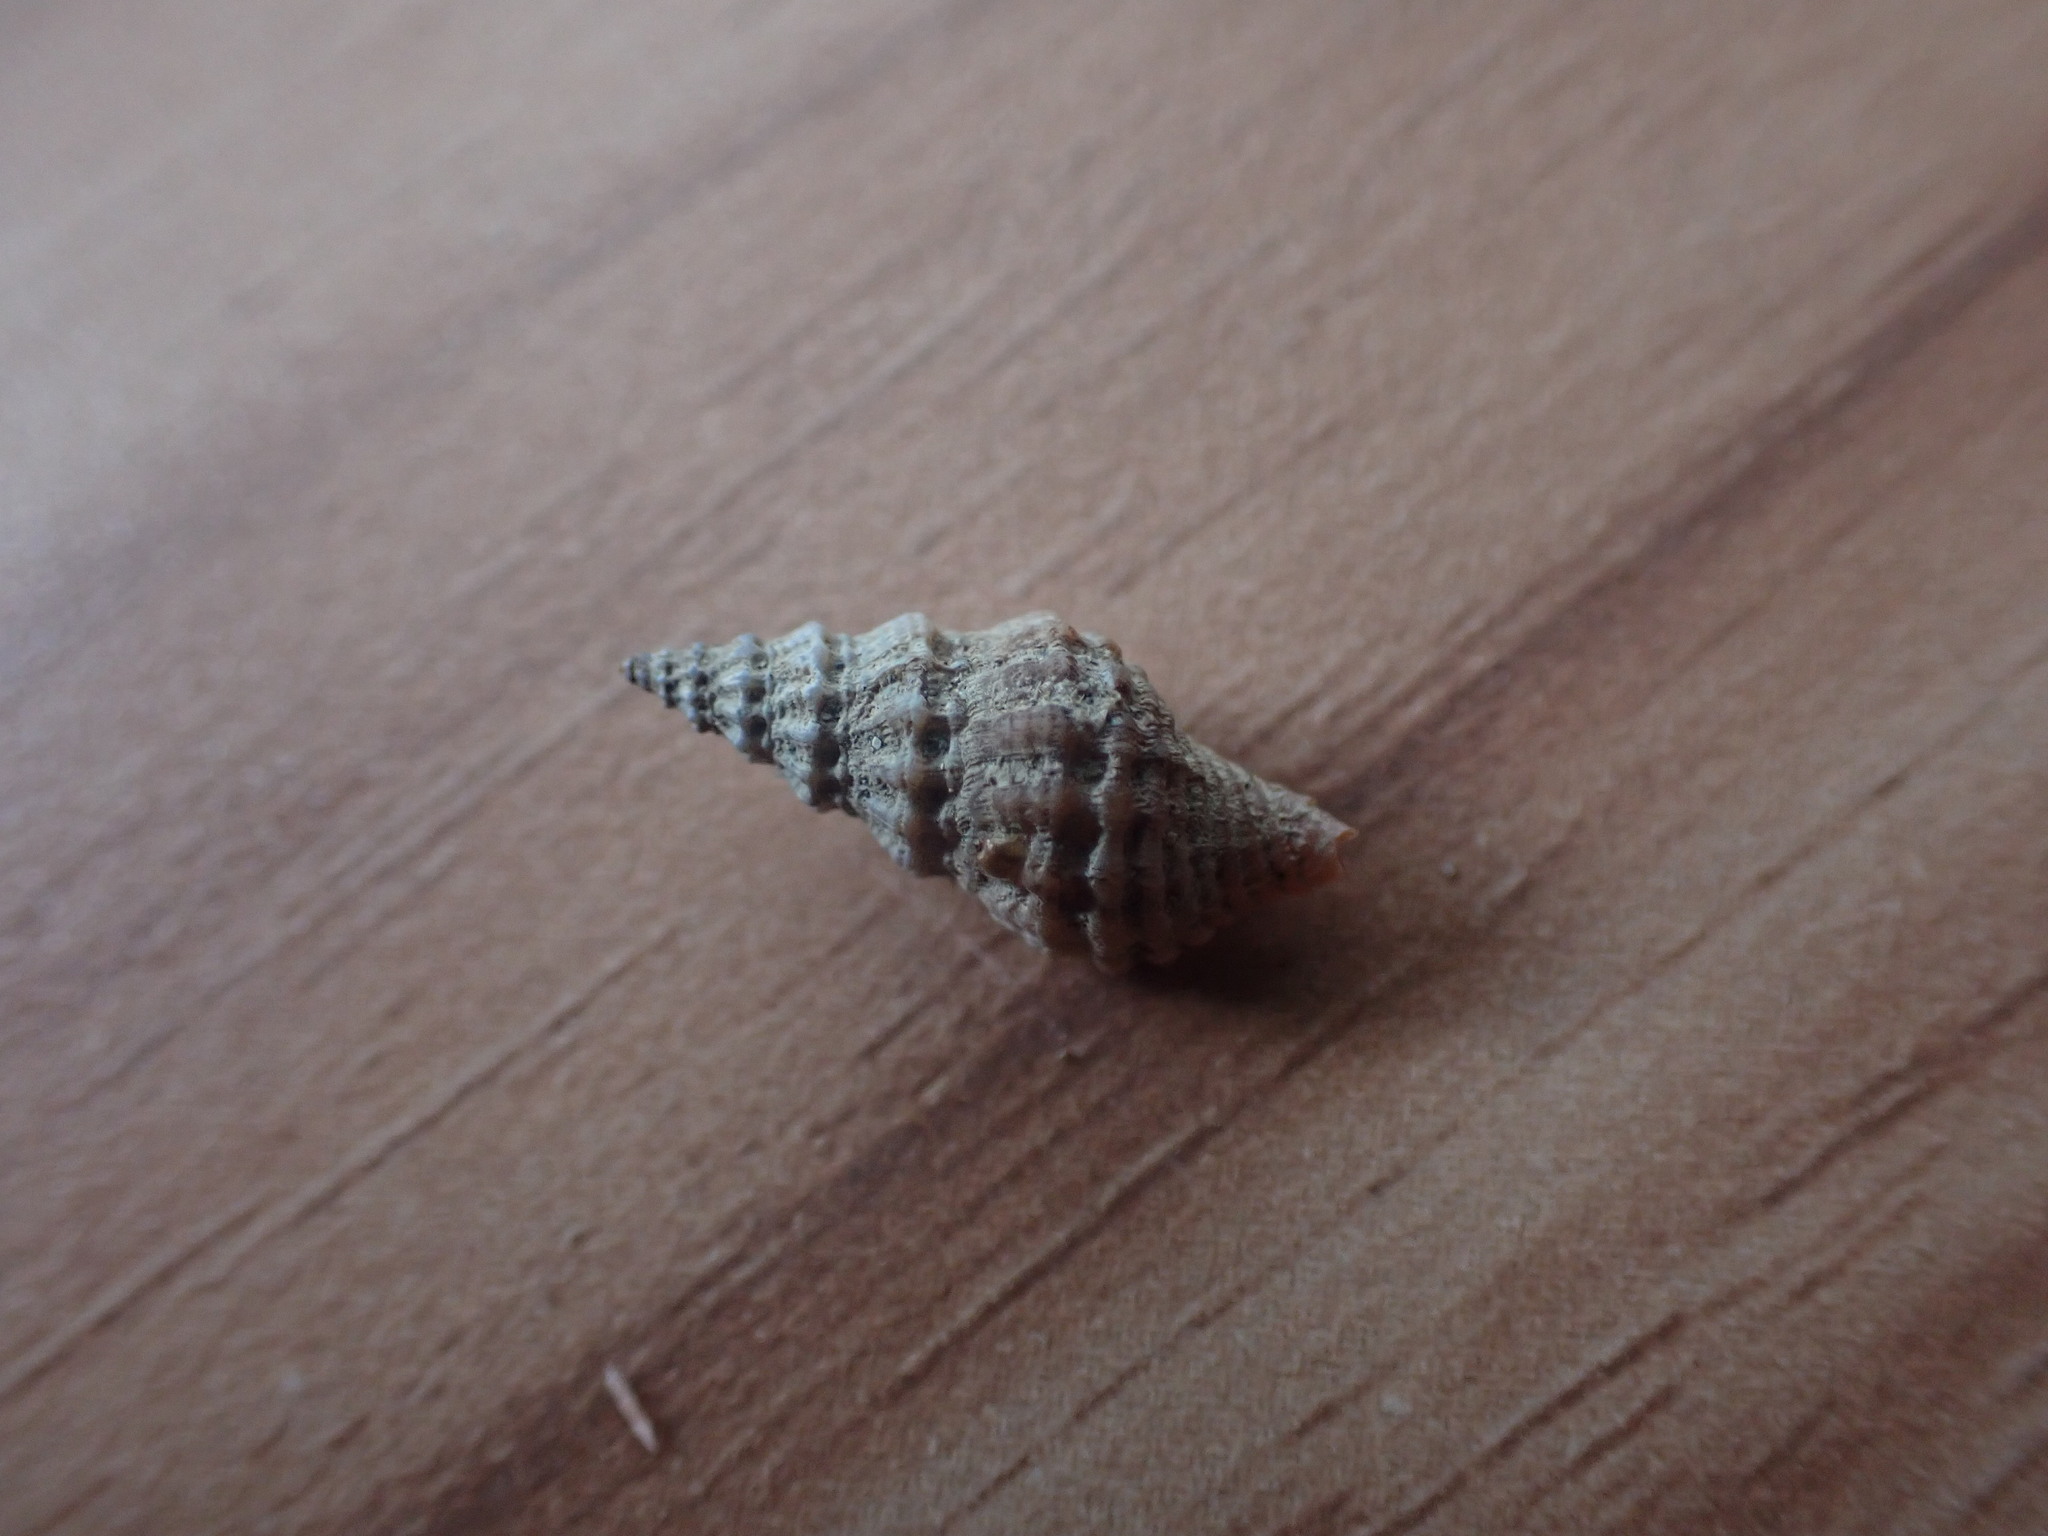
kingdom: Animalia
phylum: Mollusca
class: Gastropoda
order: Neogastropoda
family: Muricidae
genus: Lamellitrophon
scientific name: Lamellitrophon huttonii
